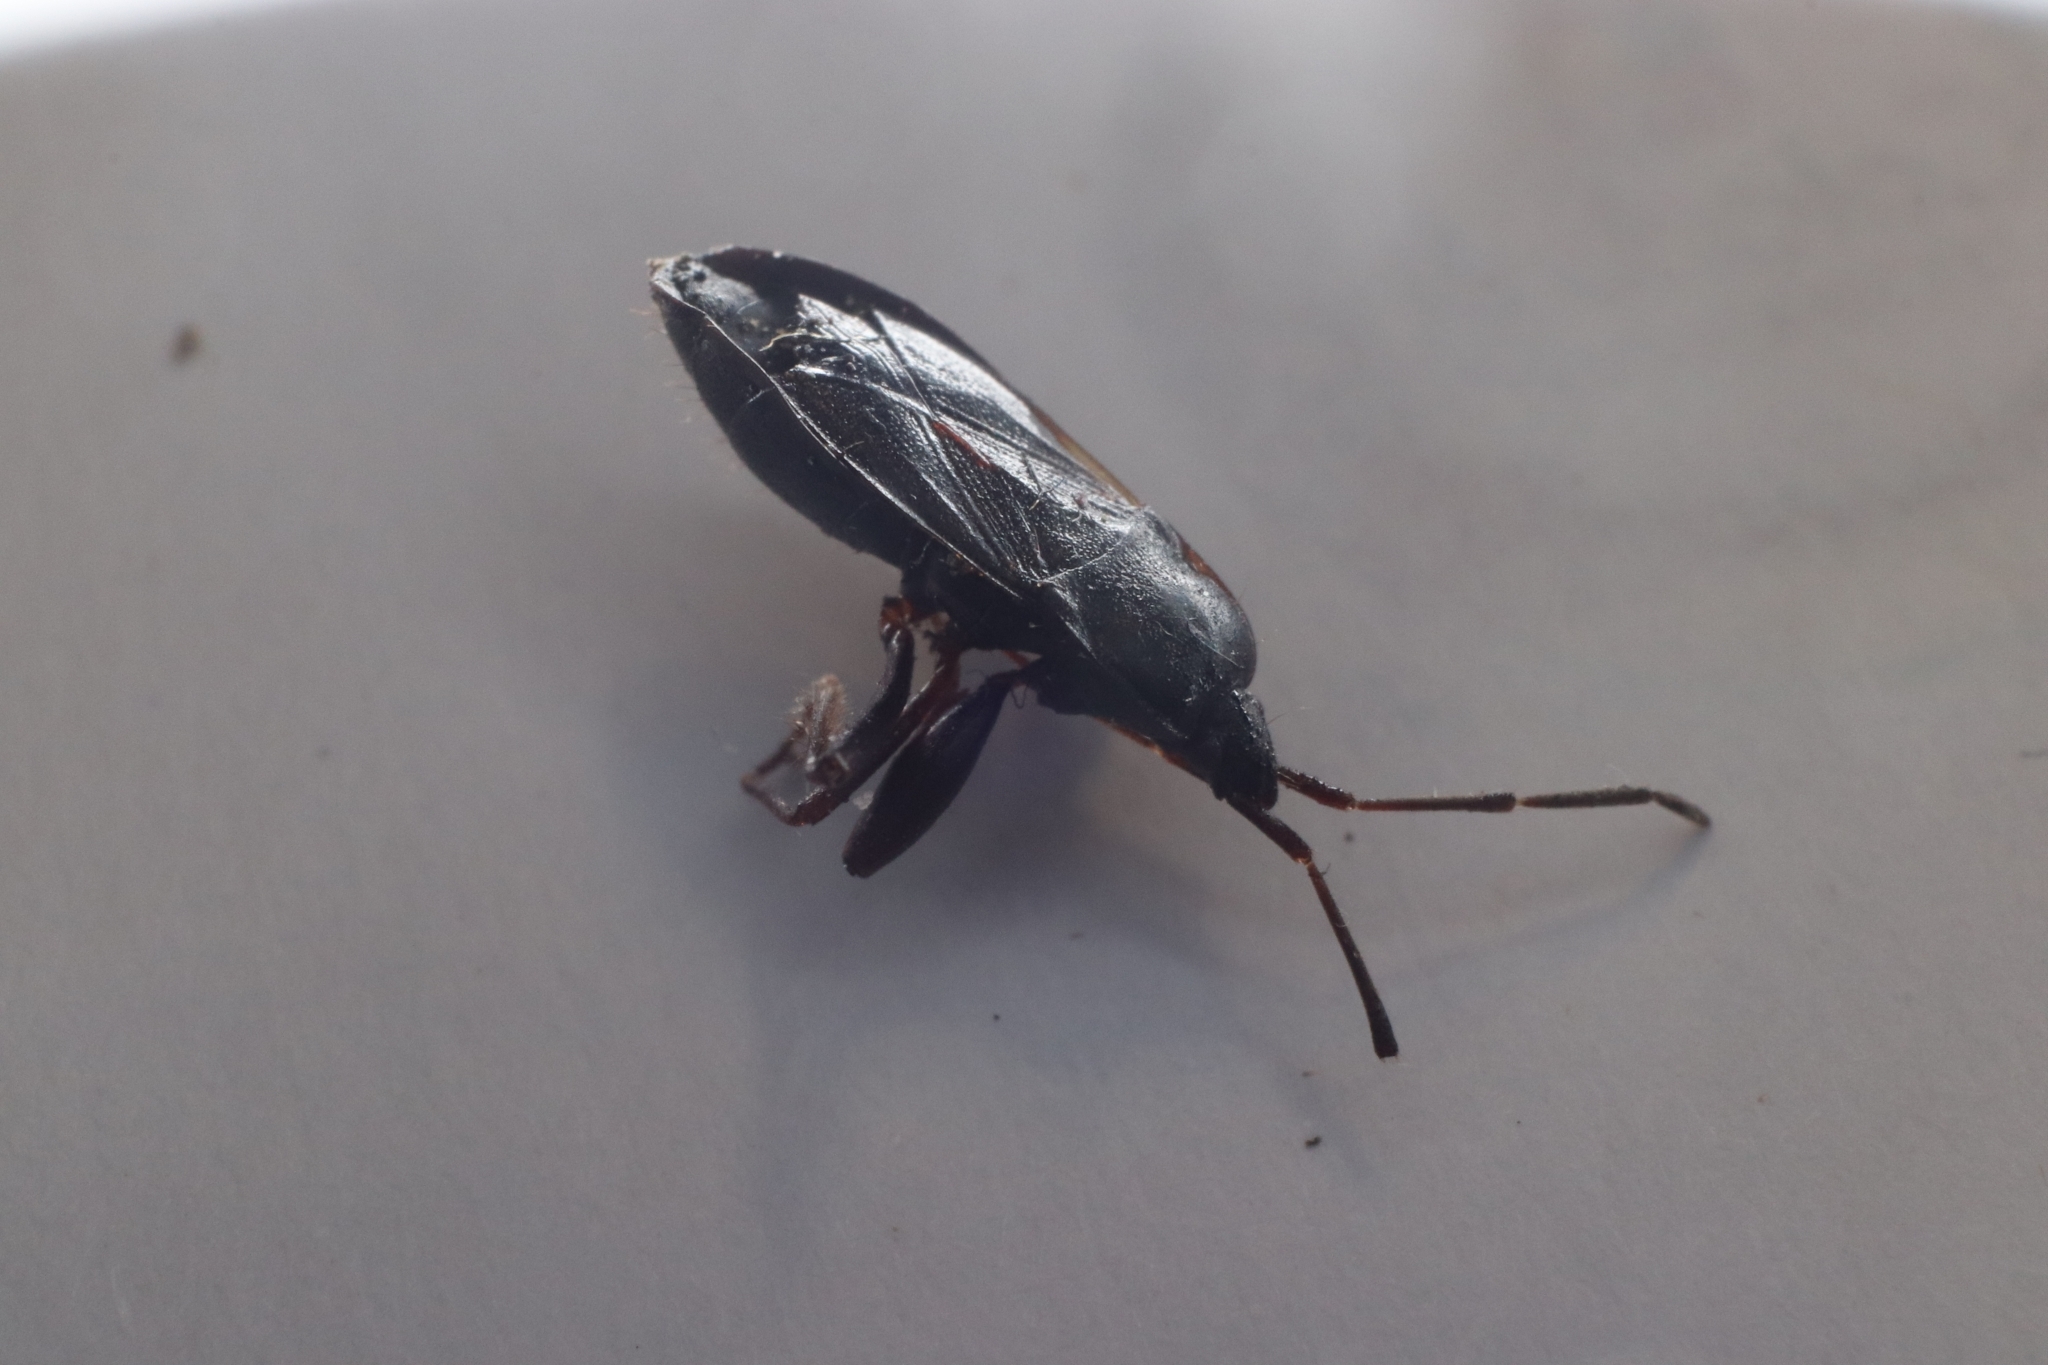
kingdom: Animalia
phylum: Arthropoda
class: Insecta
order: Hemiptera
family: Rhyparochromidae
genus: Eremocoris
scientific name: Eremocoris semicinctus
